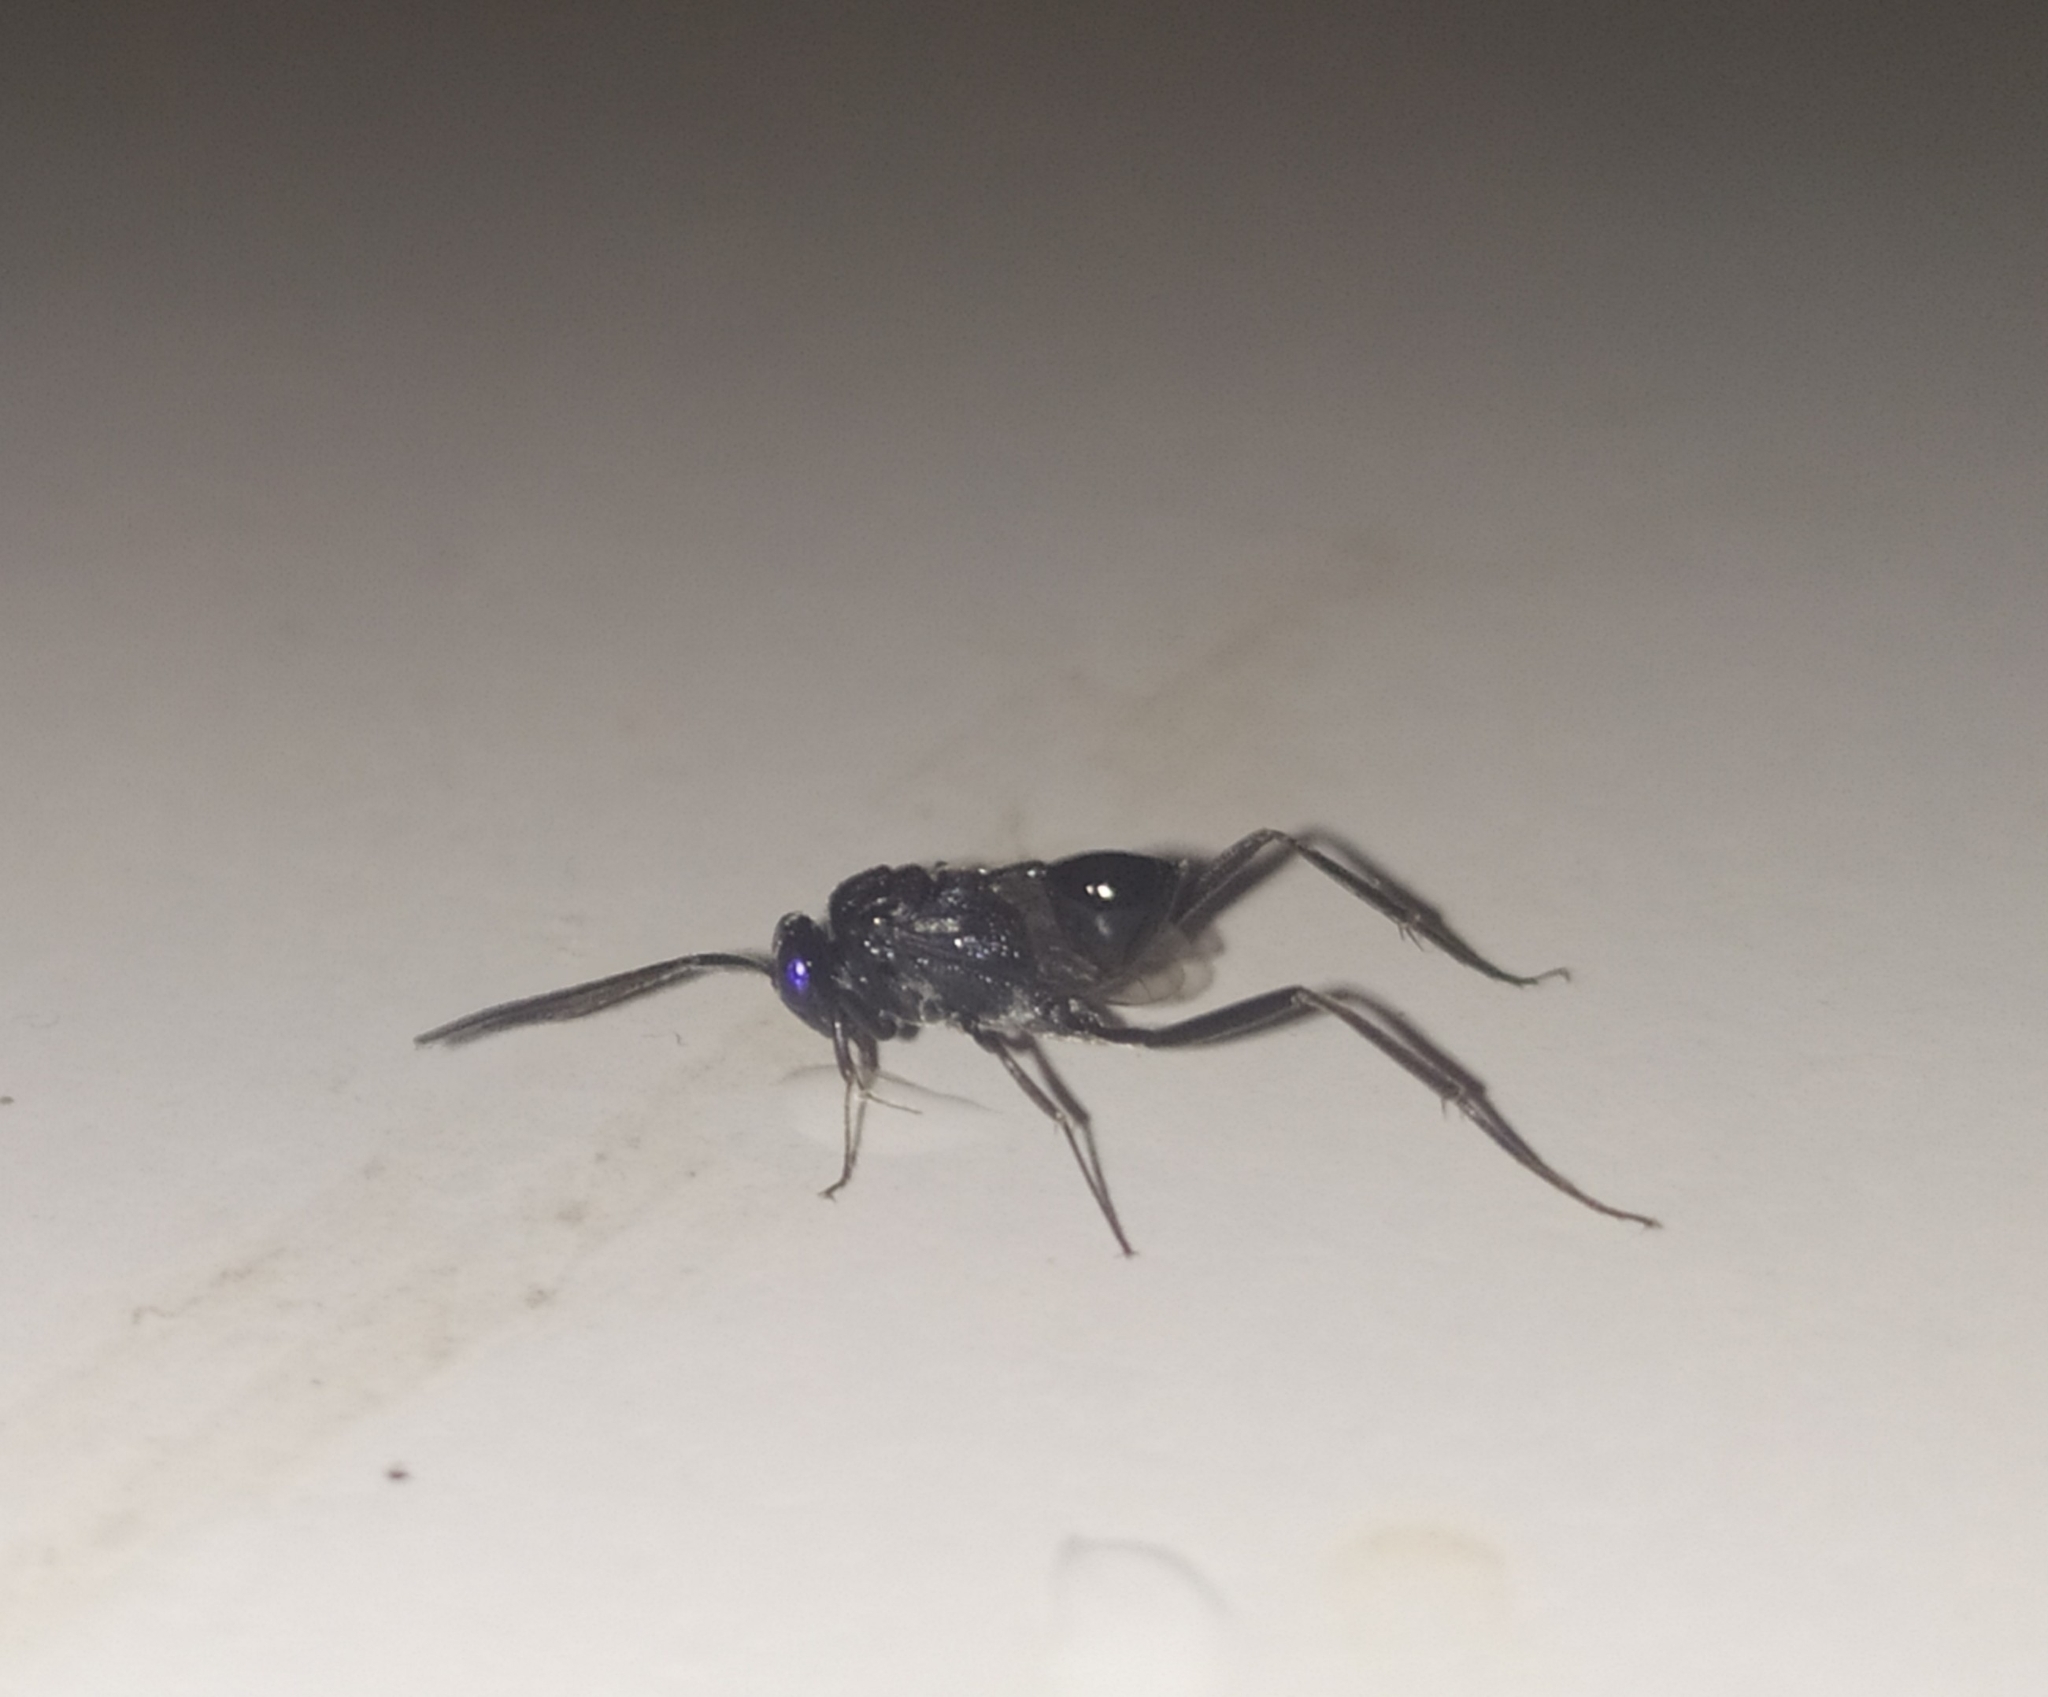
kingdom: Animalia
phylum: Arthropoda
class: Insecta
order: Hymenoptera
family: Evaniidae
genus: Evania
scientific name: Evania appendigaster
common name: Ensign wasp
